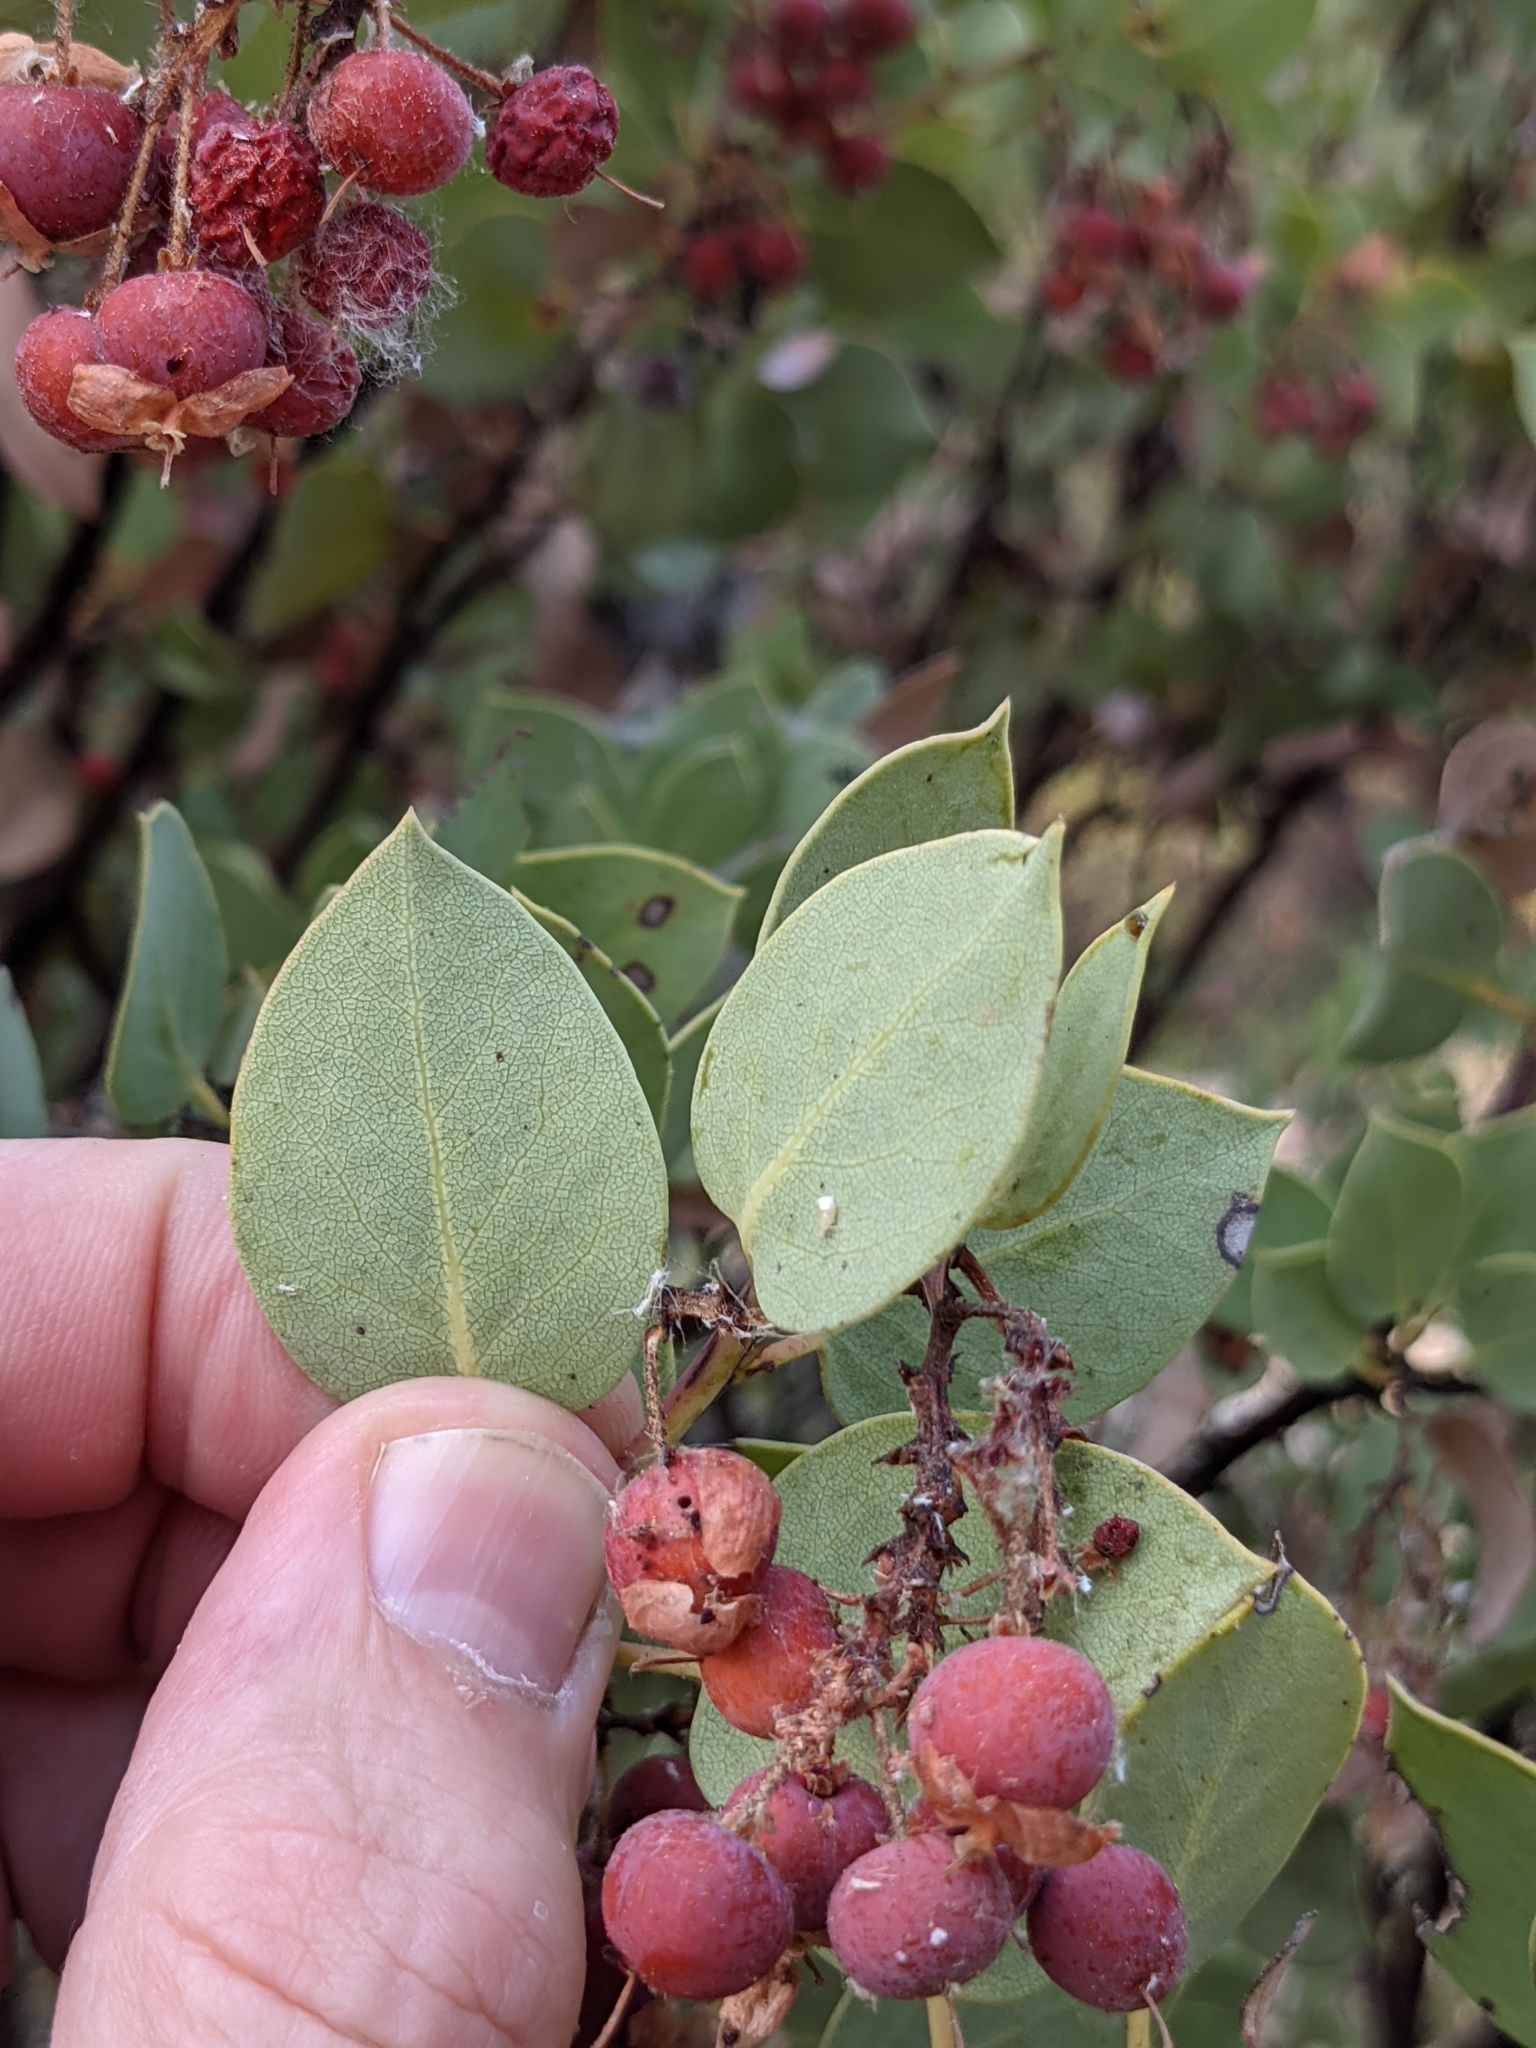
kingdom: Plantae
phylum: Tracheophyta
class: Magnoliopsida
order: Ericales
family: Ericaceae
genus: Arctostaphylos
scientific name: Arctostaphylos viscida
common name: White-leaf manzanita
